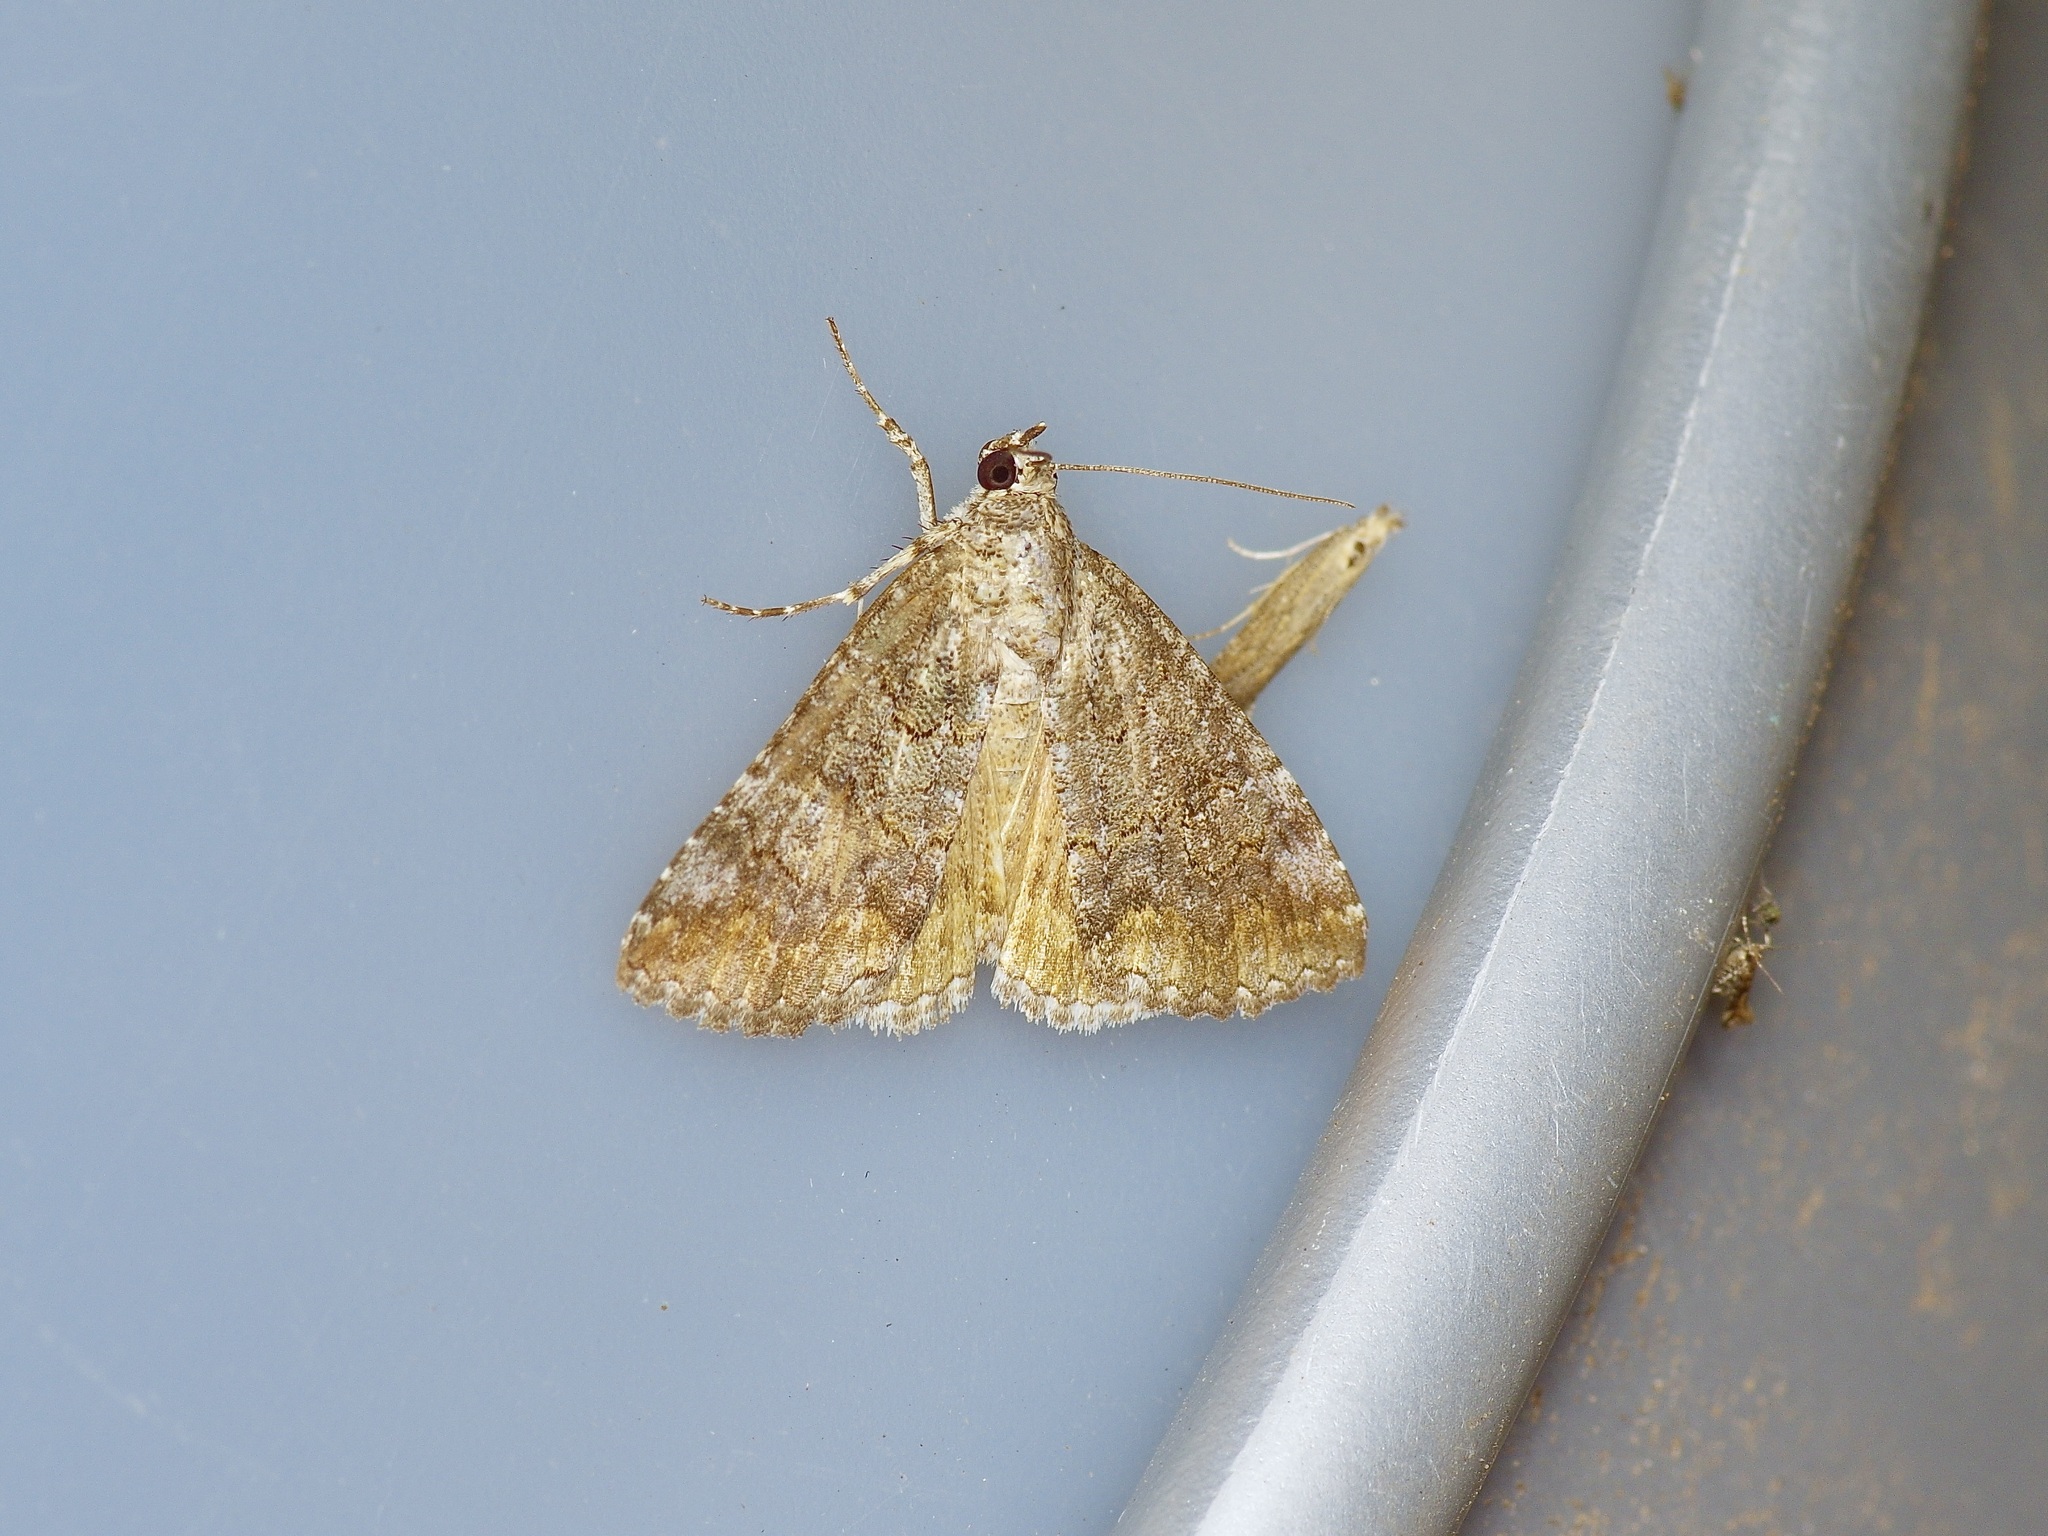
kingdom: Animalia
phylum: Arthropoda
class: Insecta
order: Lepidoptera
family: Erebidae
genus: Eubolina
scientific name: Eubolina impartialis
